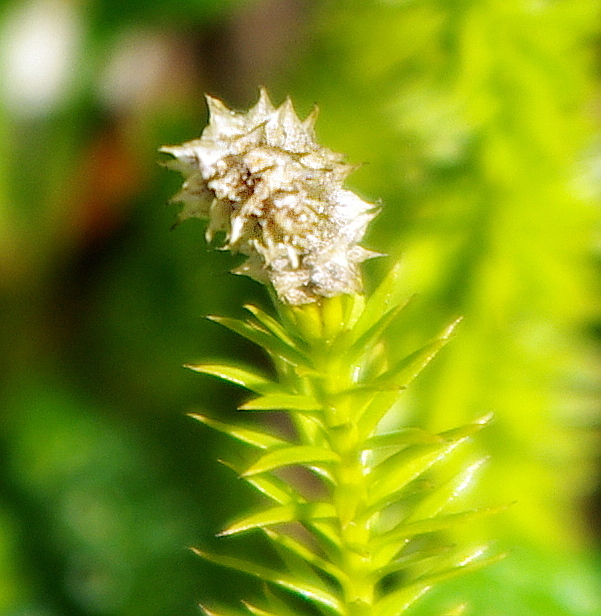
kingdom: Plantae
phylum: Tracheophyta
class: Lycopodiopsida
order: Lycopodiales
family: Lycopodiaceae
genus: Spinulum
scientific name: Spinulum annotinum
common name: Interrupted club-moss
